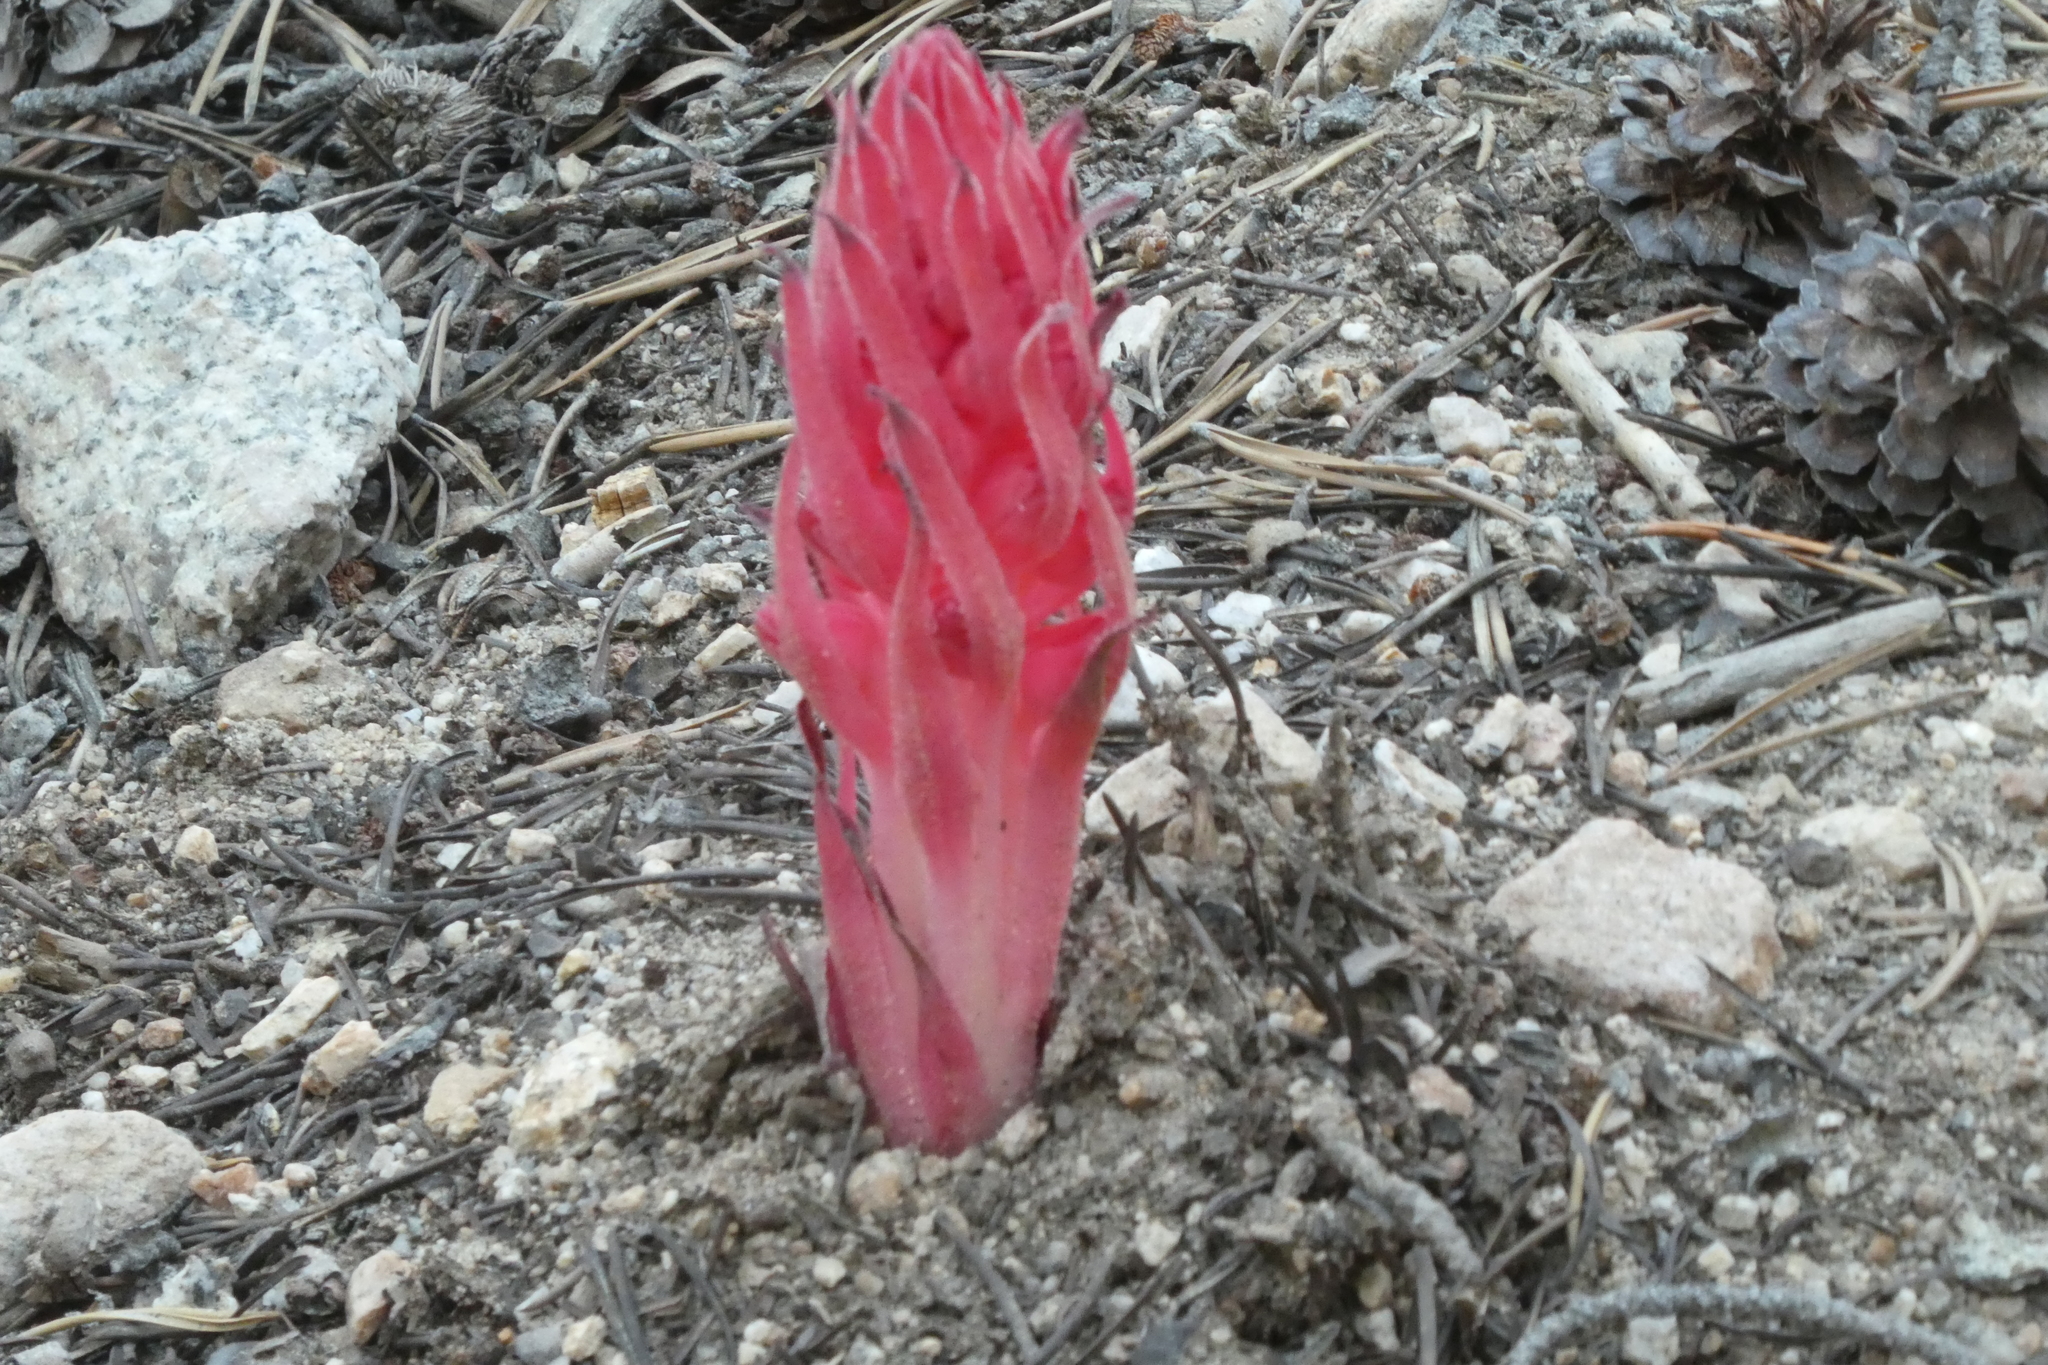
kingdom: Plantae
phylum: Tracheophyta
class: Magnoliopsida
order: Ericales
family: Ericaceae
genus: Sarcodes
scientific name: Sarcodes sanguinea
